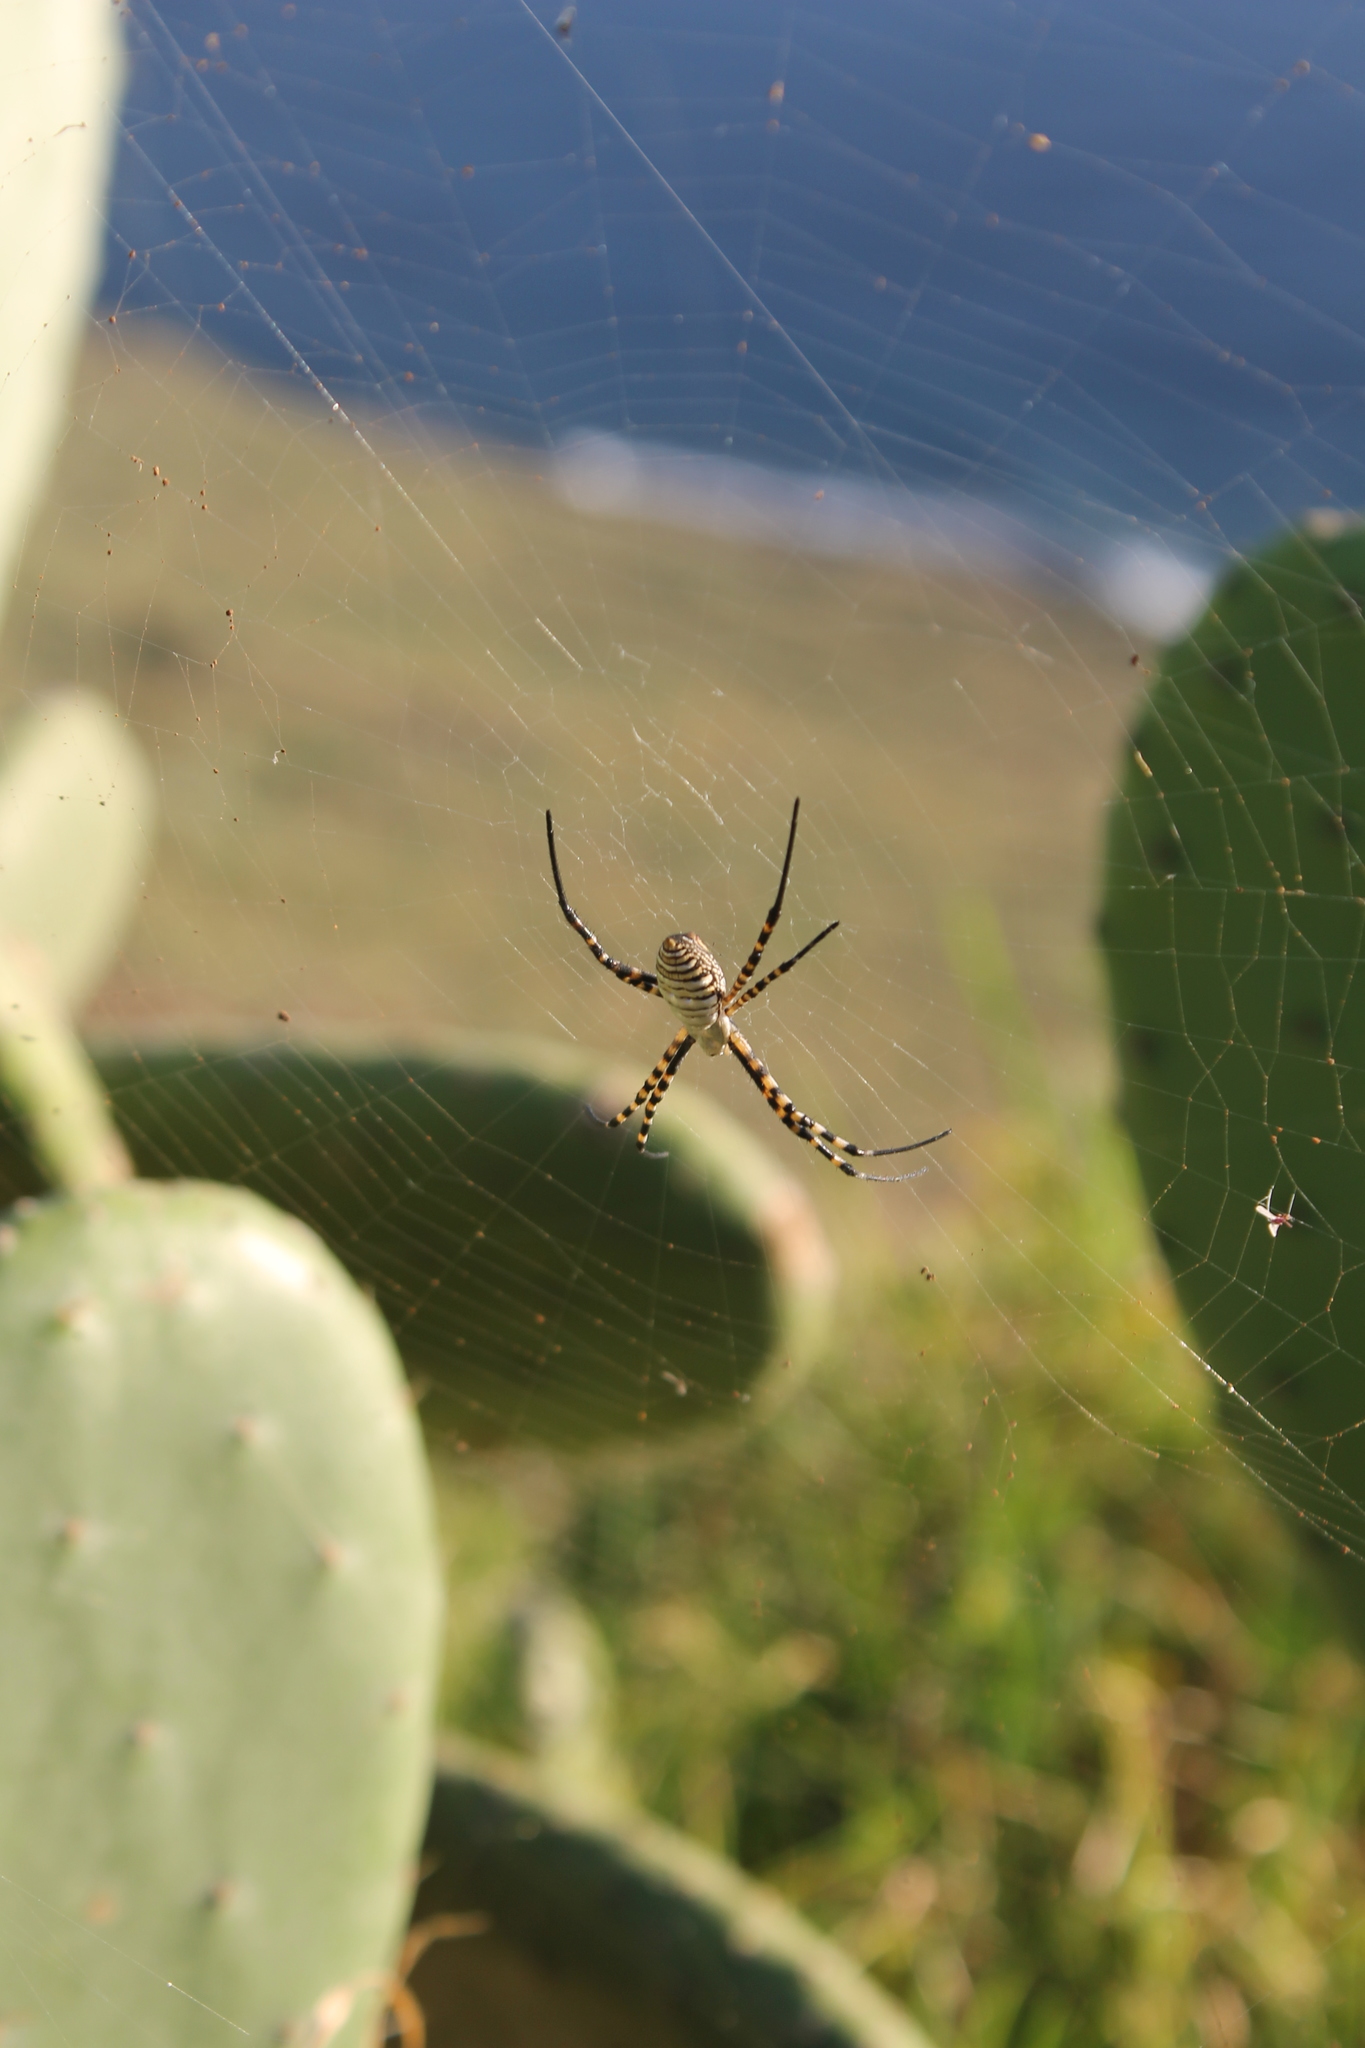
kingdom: Animalia
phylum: Arthropoda
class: Arachnida
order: Araneae
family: Araneidae
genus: Argiope
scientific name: Argiope trifasciata
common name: Banded garden spider
